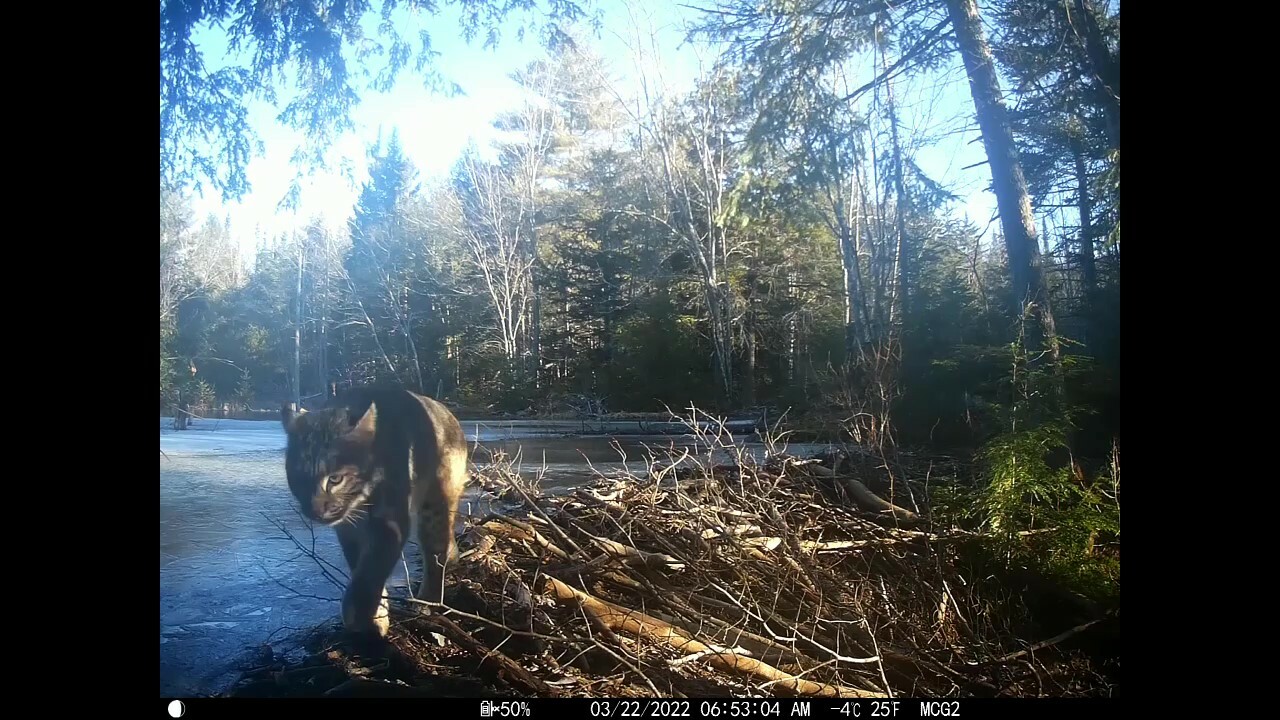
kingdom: Animalia
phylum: Chordata
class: Mammalia
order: Carnivora
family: Felidae
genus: Lynx
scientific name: Lynx rufus
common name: Bobcat
